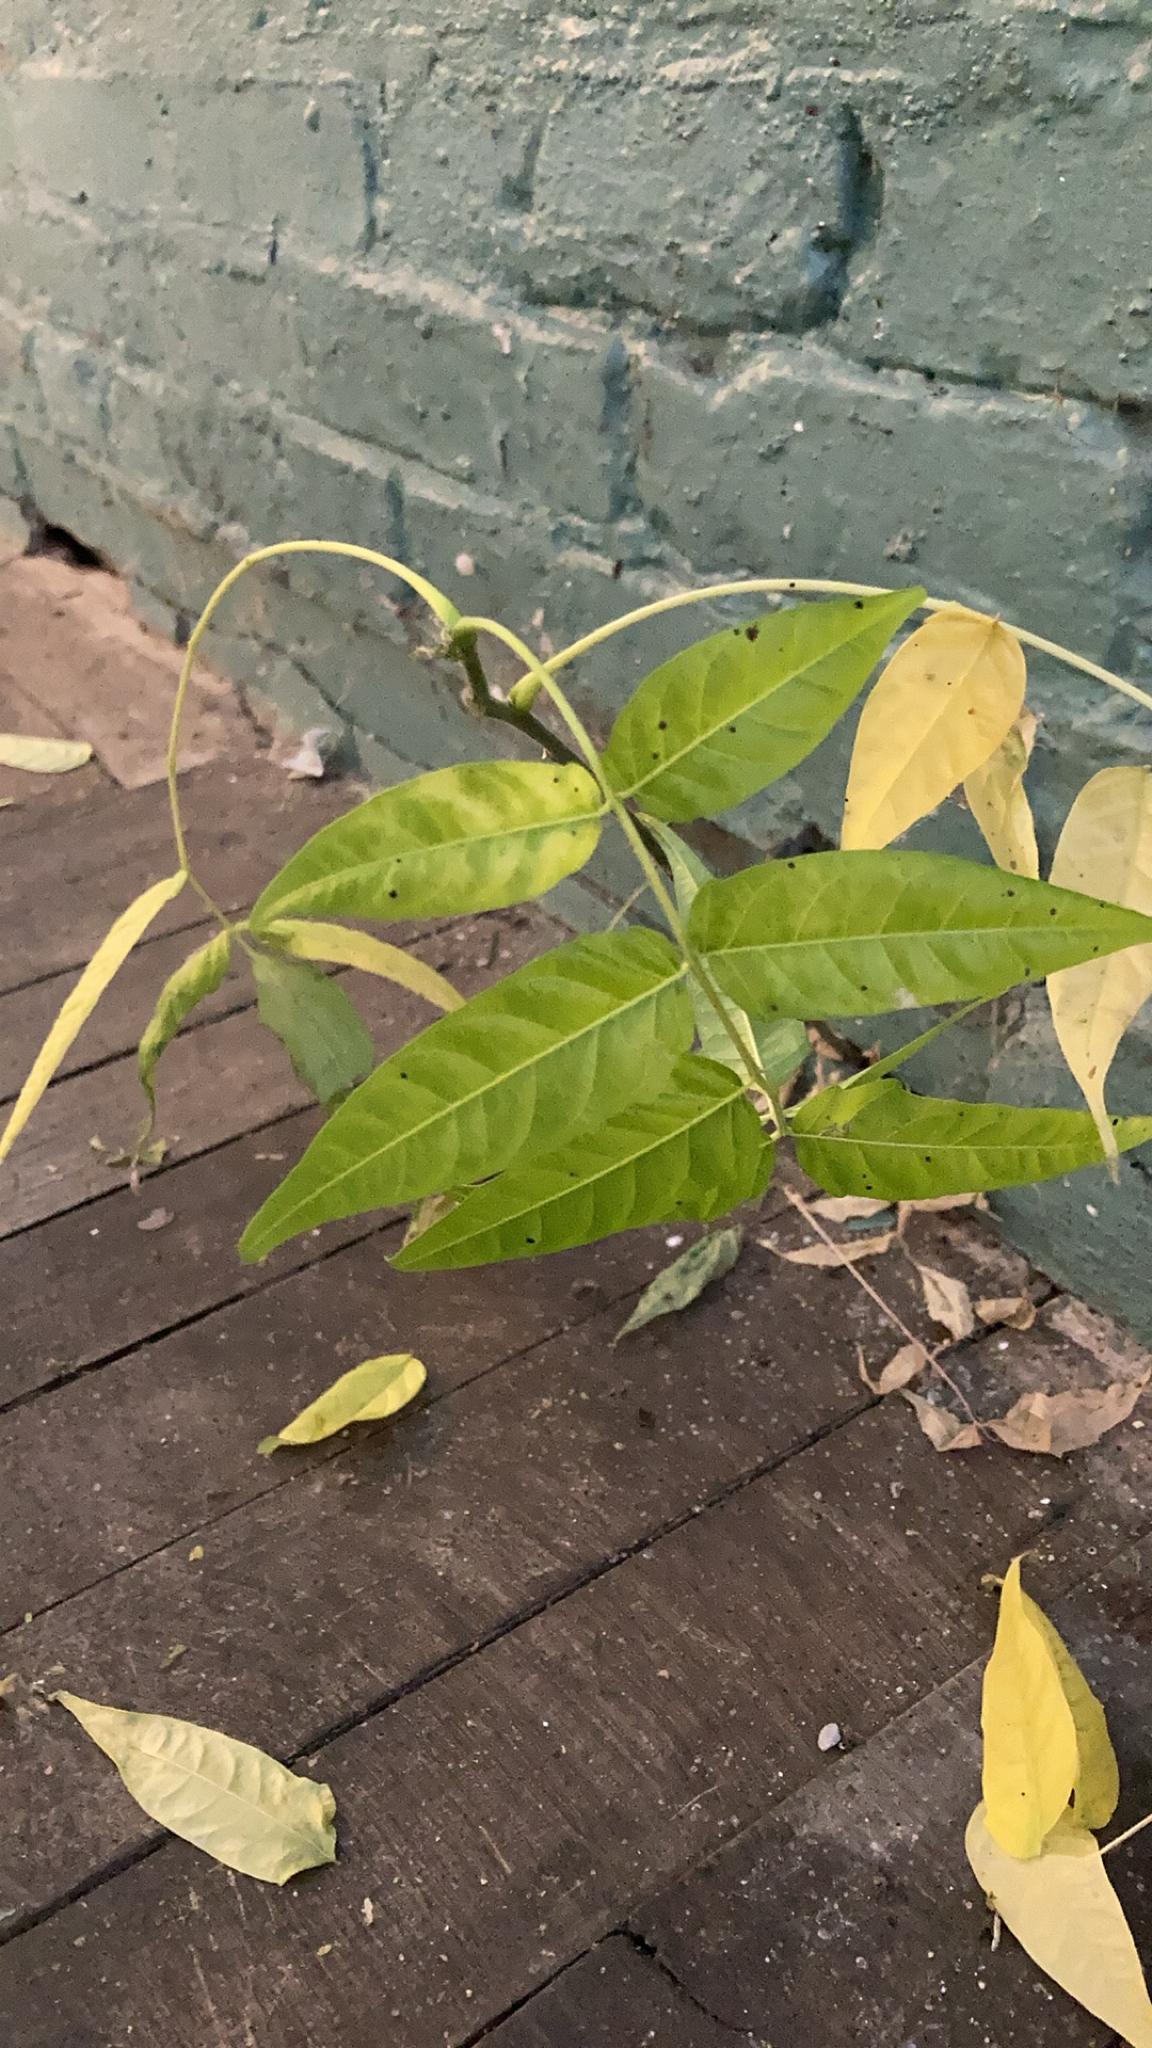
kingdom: Plantae
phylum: Tracheophyta
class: Magnoliopsida
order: Sapindales
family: Simaroubaceae
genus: Ailanthus
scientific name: Ailanthus altissima
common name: Tree-of-heaven
